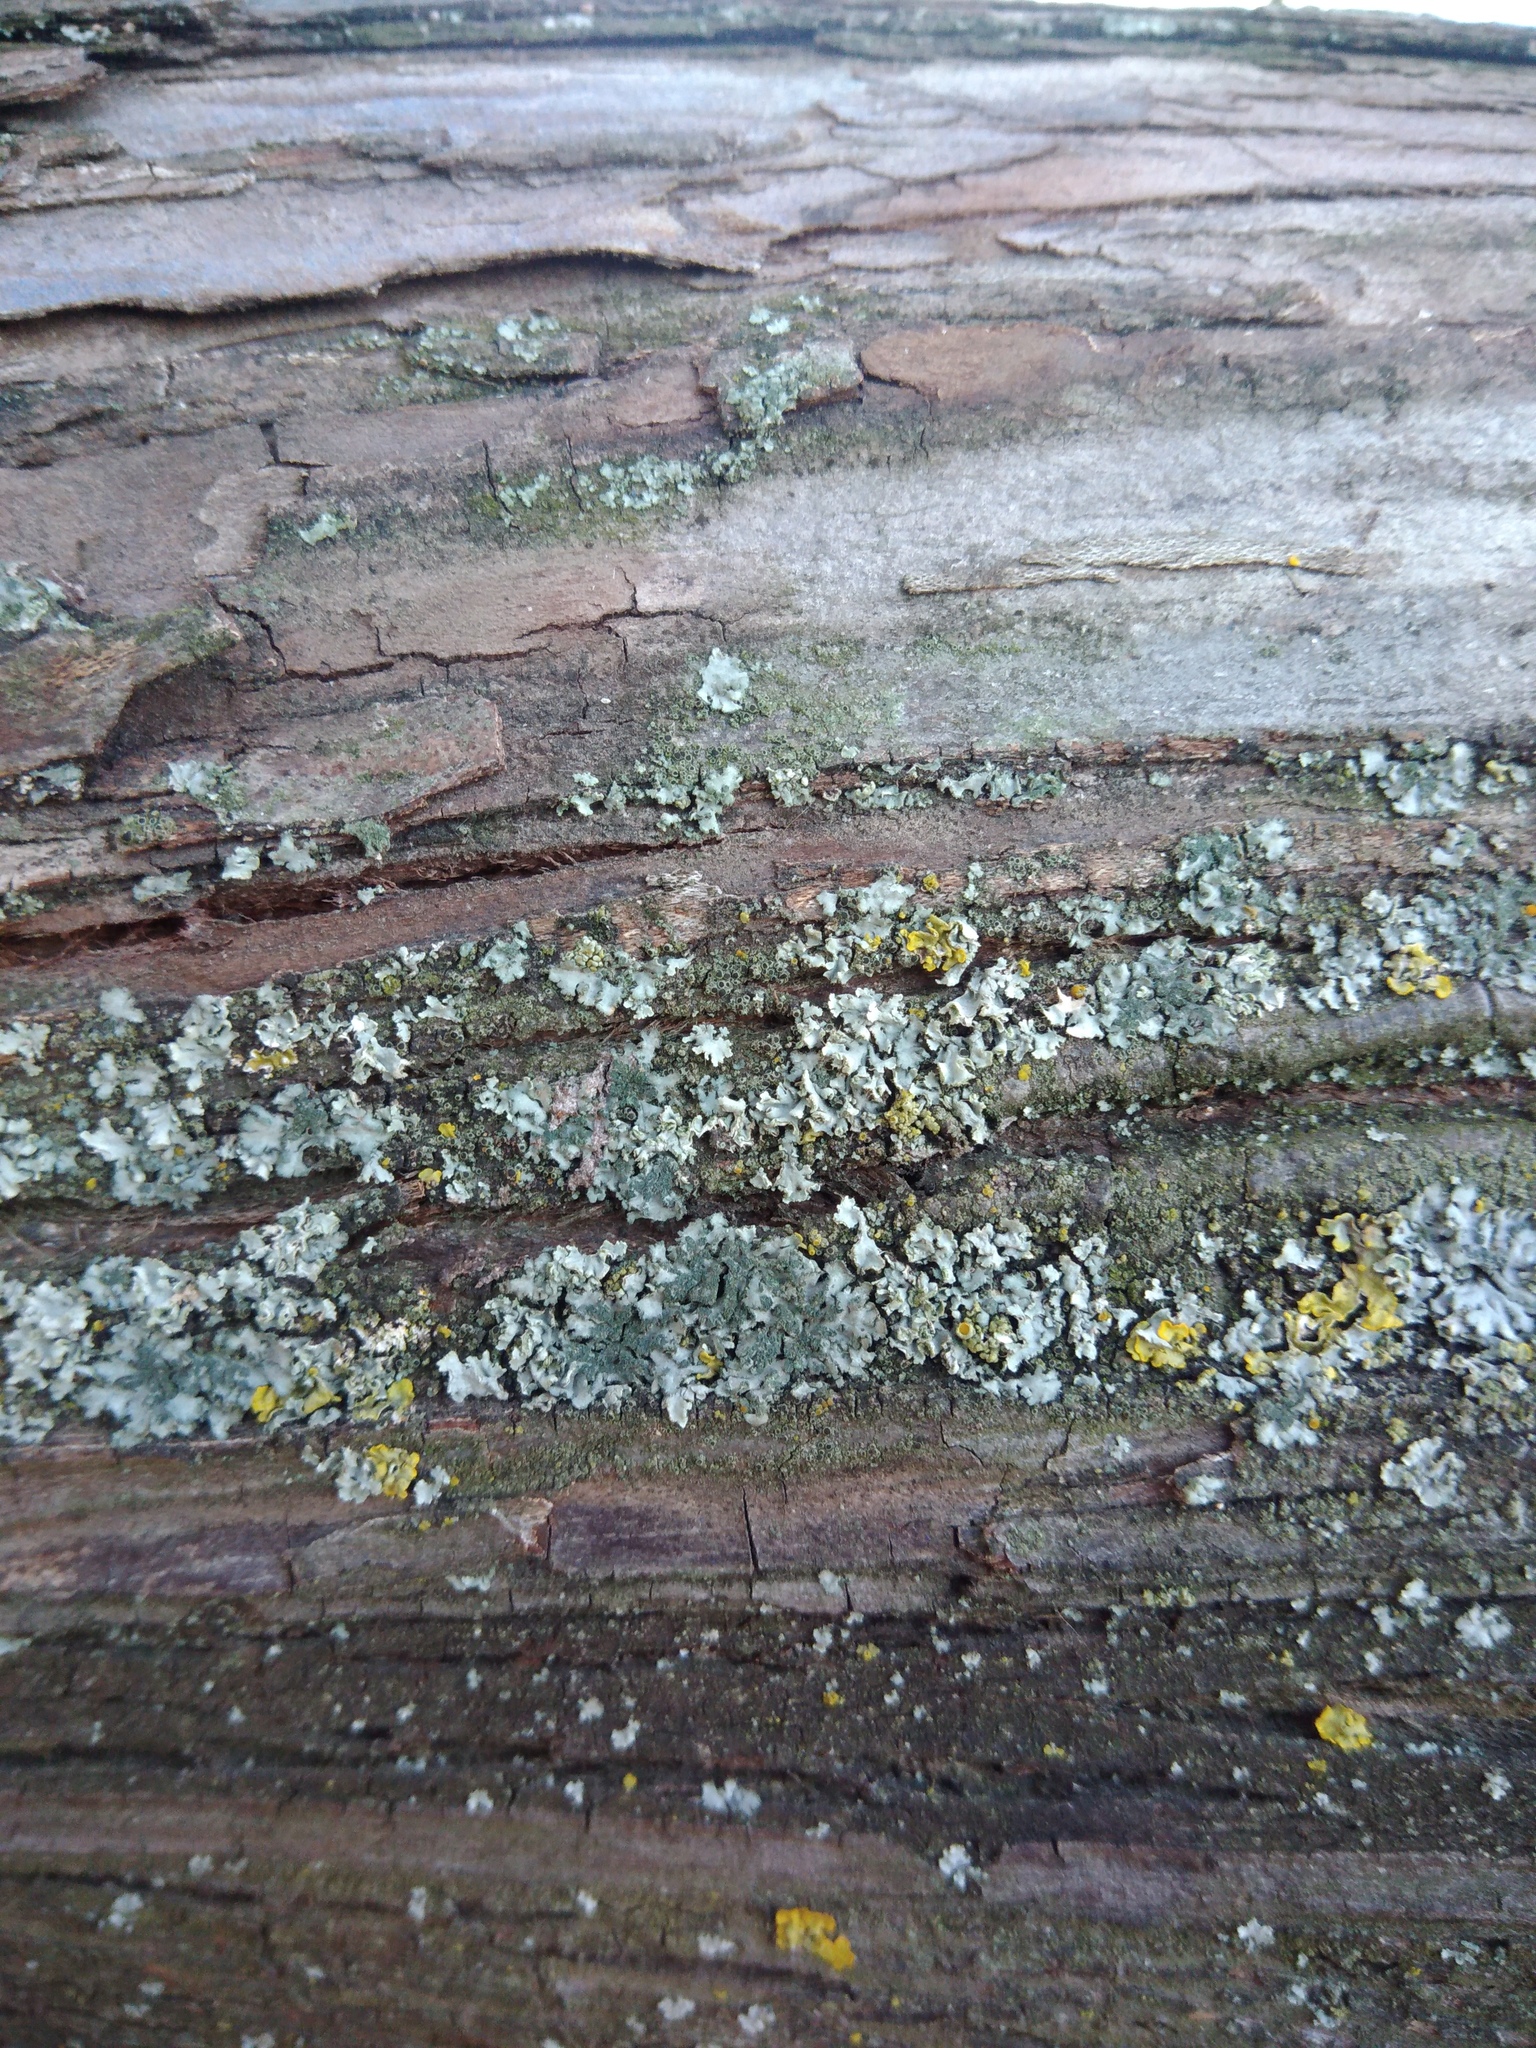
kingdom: Fungi
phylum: Ascomycota
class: Lecanoromycetes
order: Caliciales
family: Physciaceae
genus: Phaeophyscia
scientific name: Phaeophyscia orbicularis
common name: Mealy shadow lichen
